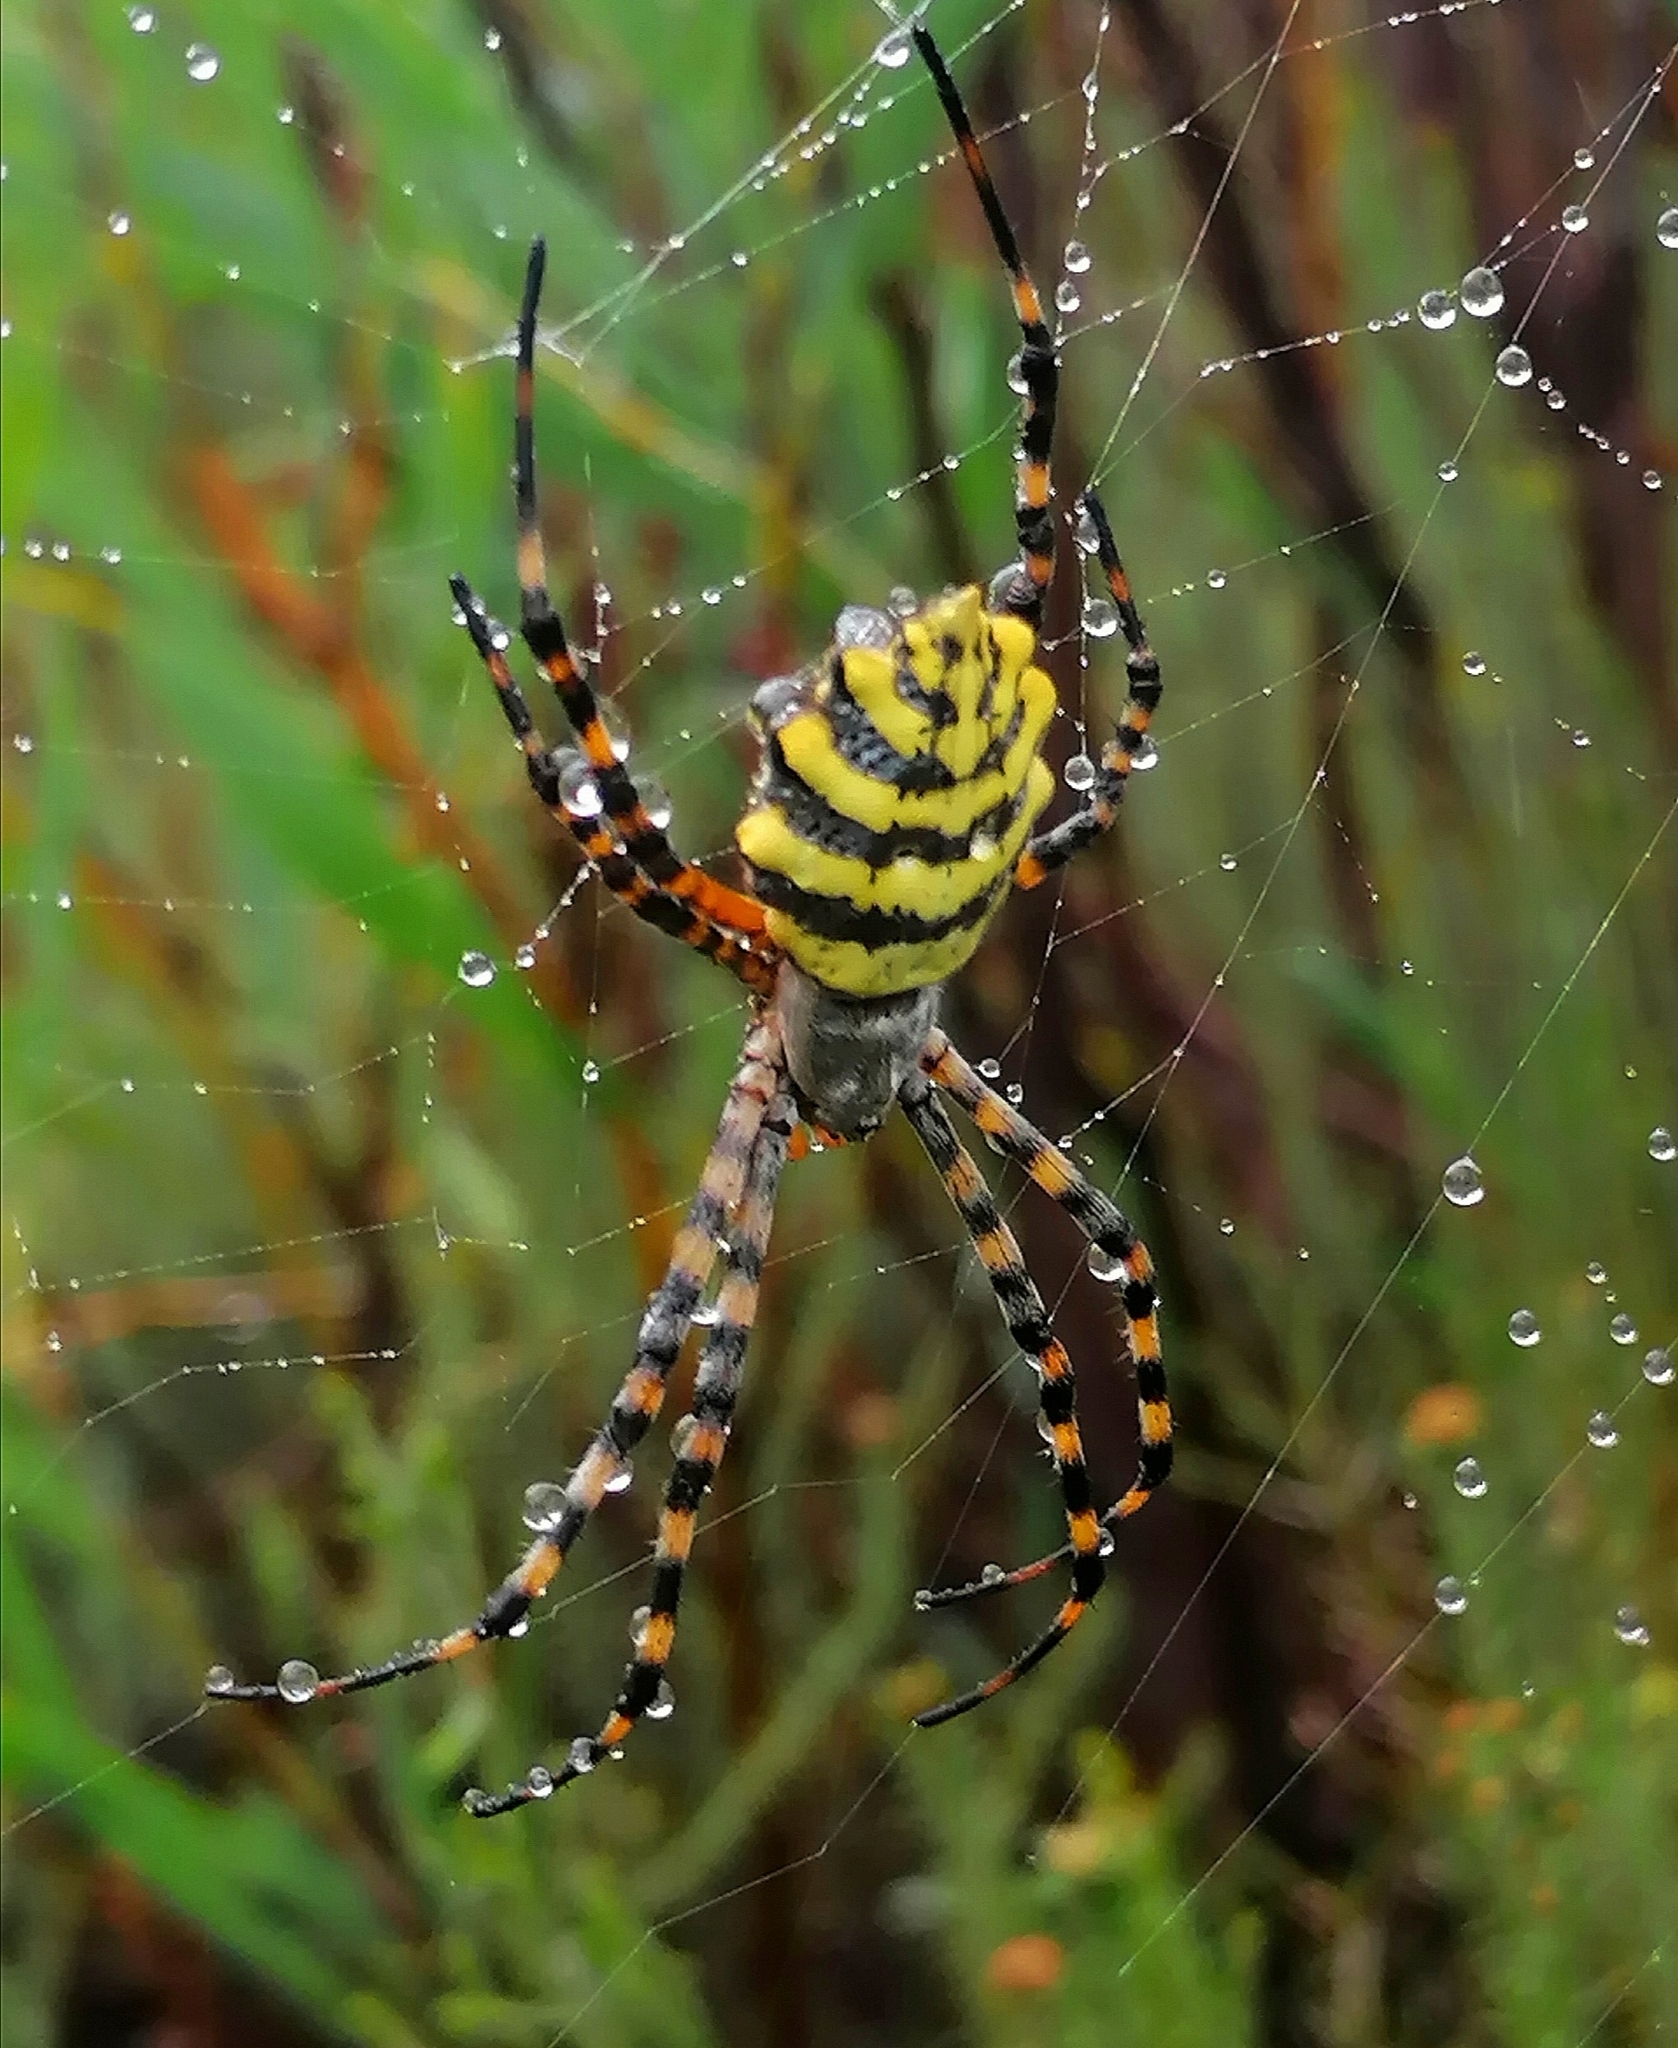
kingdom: Animalia
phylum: Arthropoda
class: Arachnida
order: Araneae
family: Araneidae
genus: Argiope
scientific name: Argiope australis
